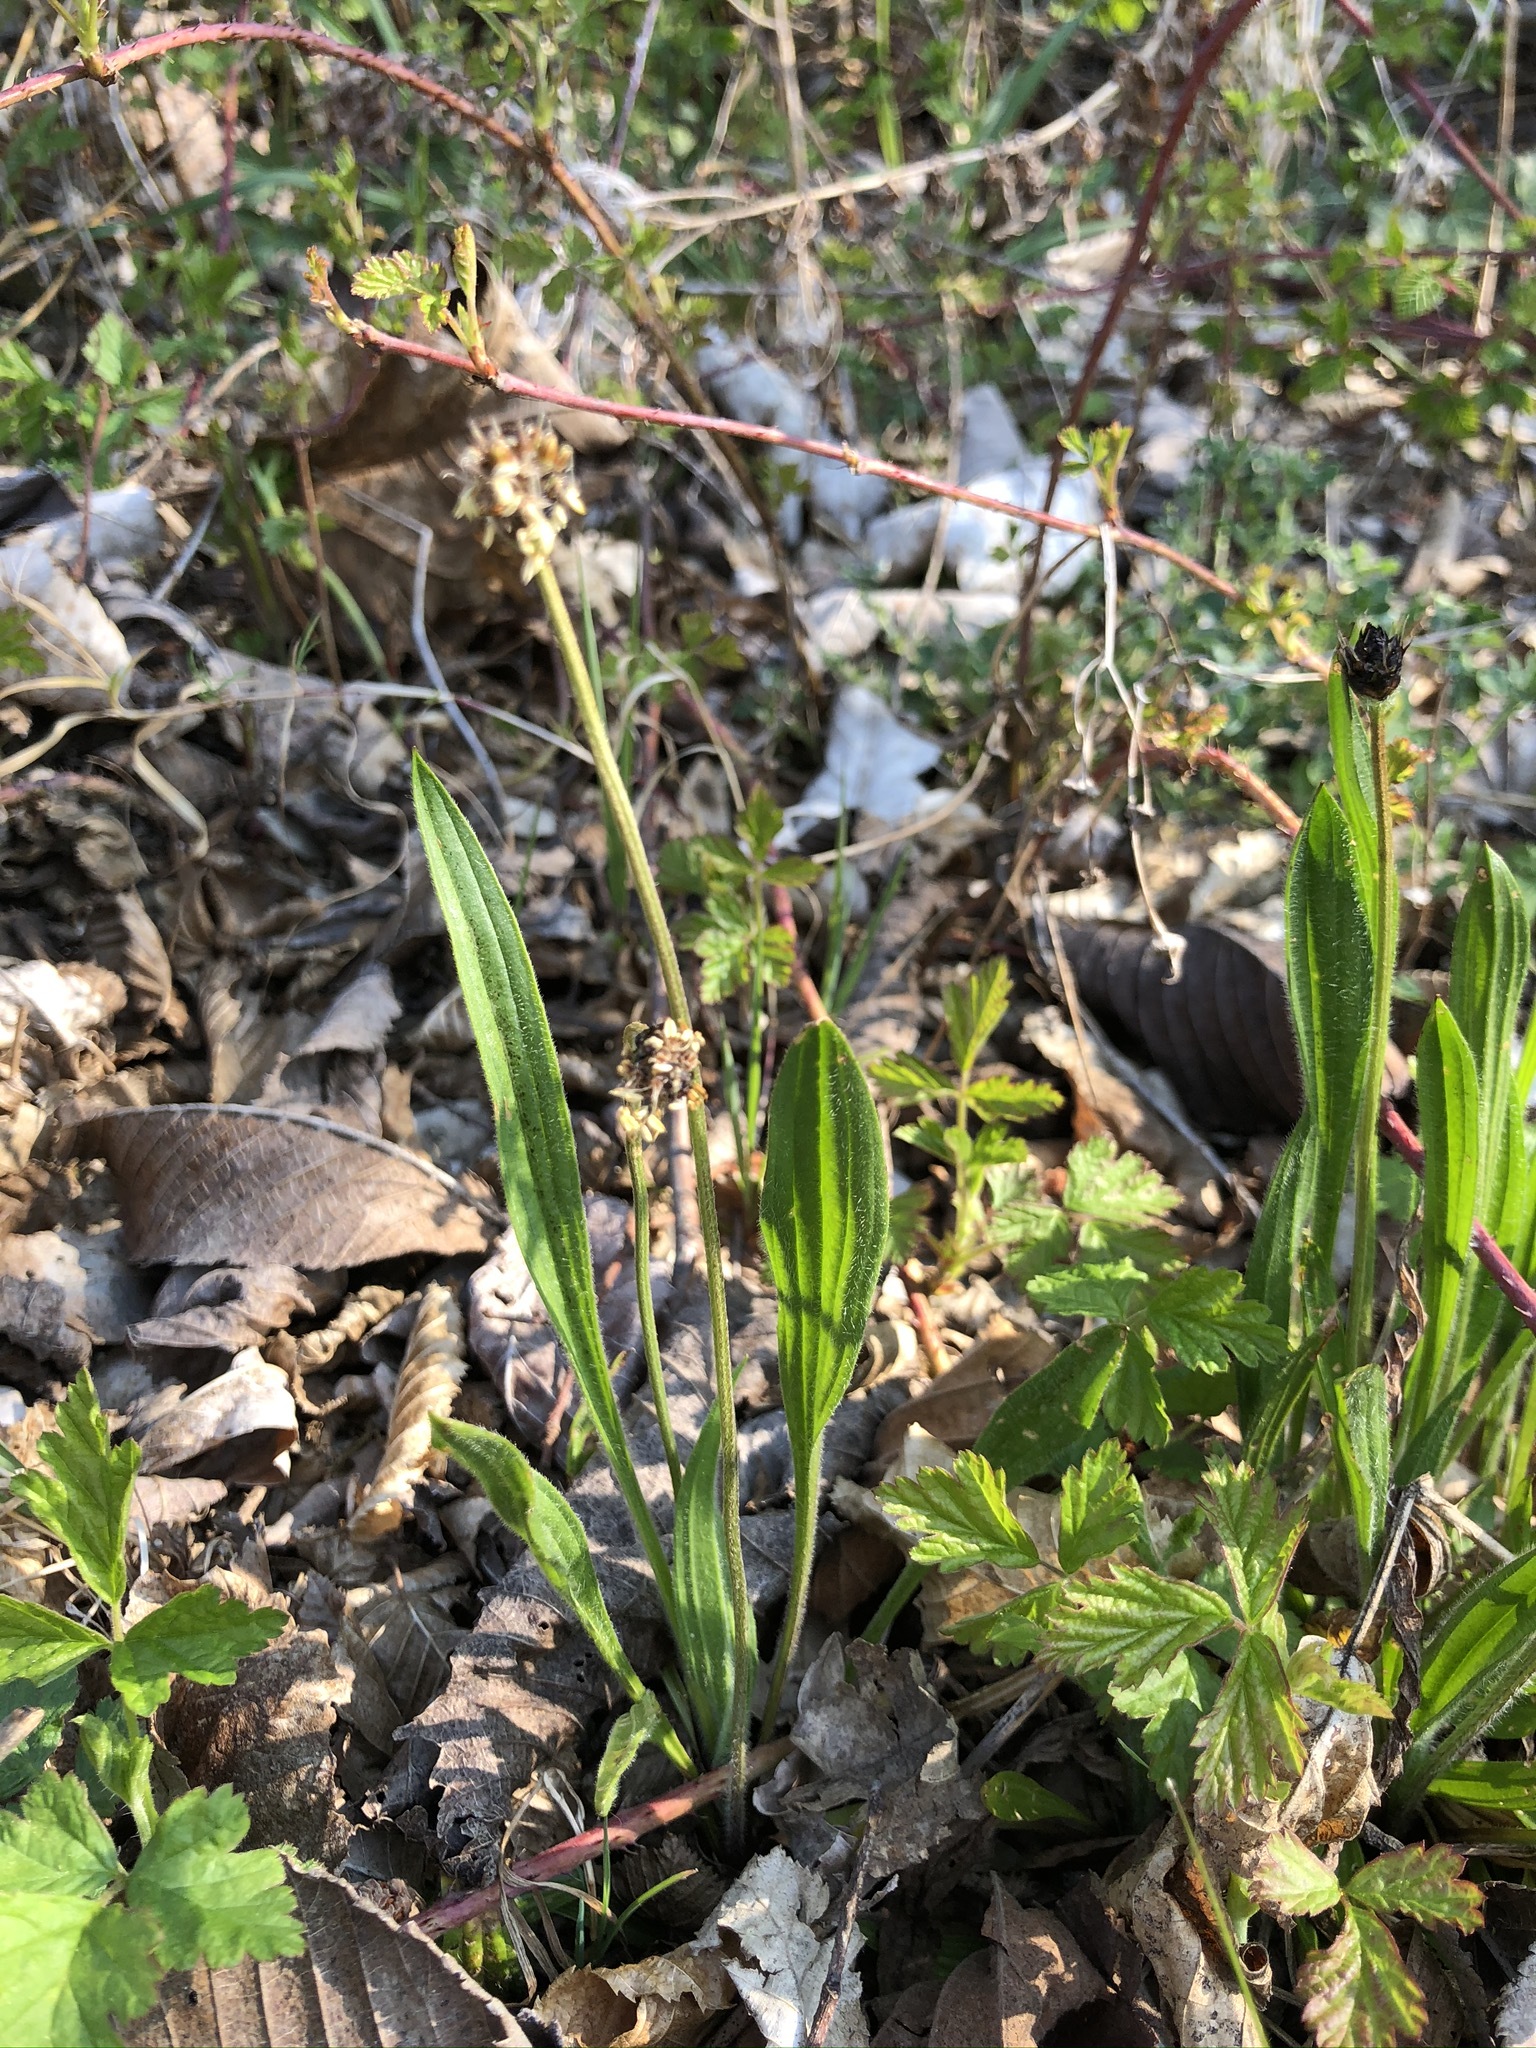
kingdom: Plantae
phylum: Tracheophyta
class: Magnoliopsida
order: Lamiales
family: Plantaginaceae
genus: Plantago
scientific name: Plantago lanceolata
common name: Ribwort plantain
